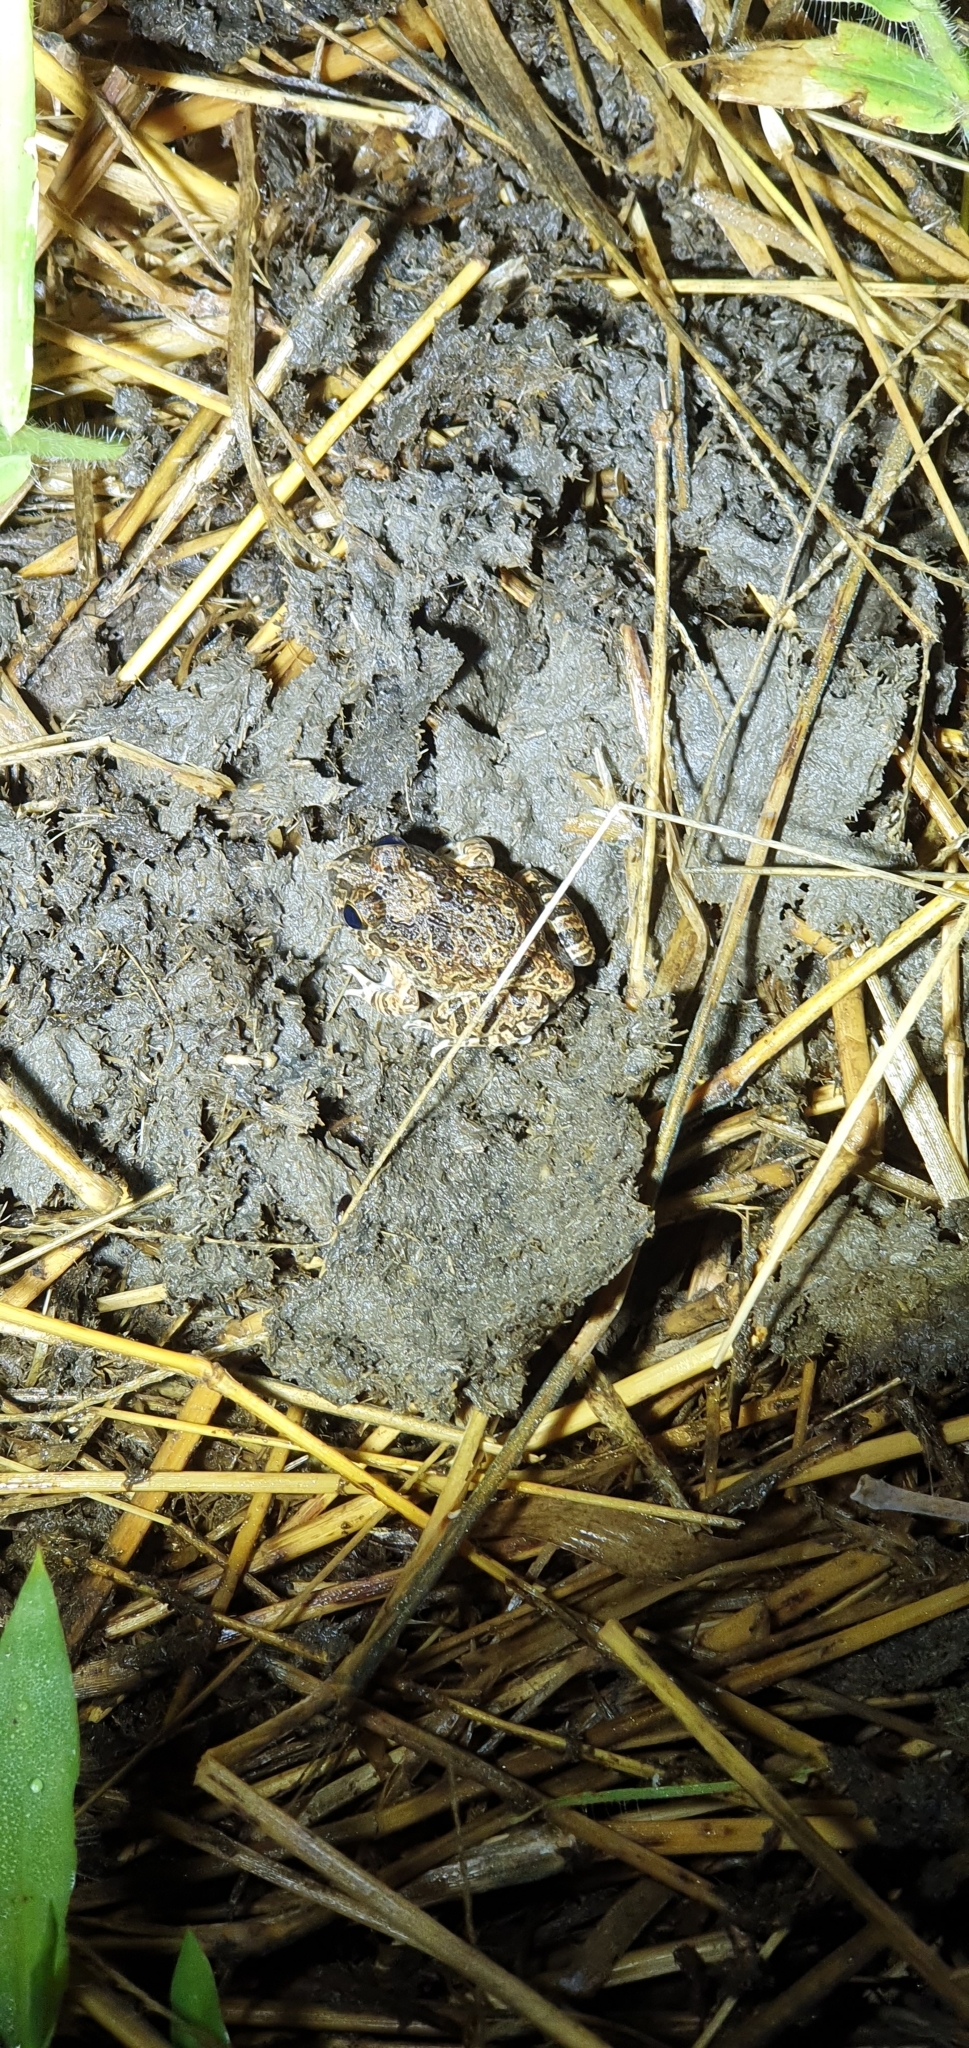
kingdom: Animalia
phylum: Chordata
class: Amphibia
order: Anura
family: Limnodynastidae
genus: Platyplectrum
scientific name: Platyplectrum ornatum
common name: Ornate burrowing frog
